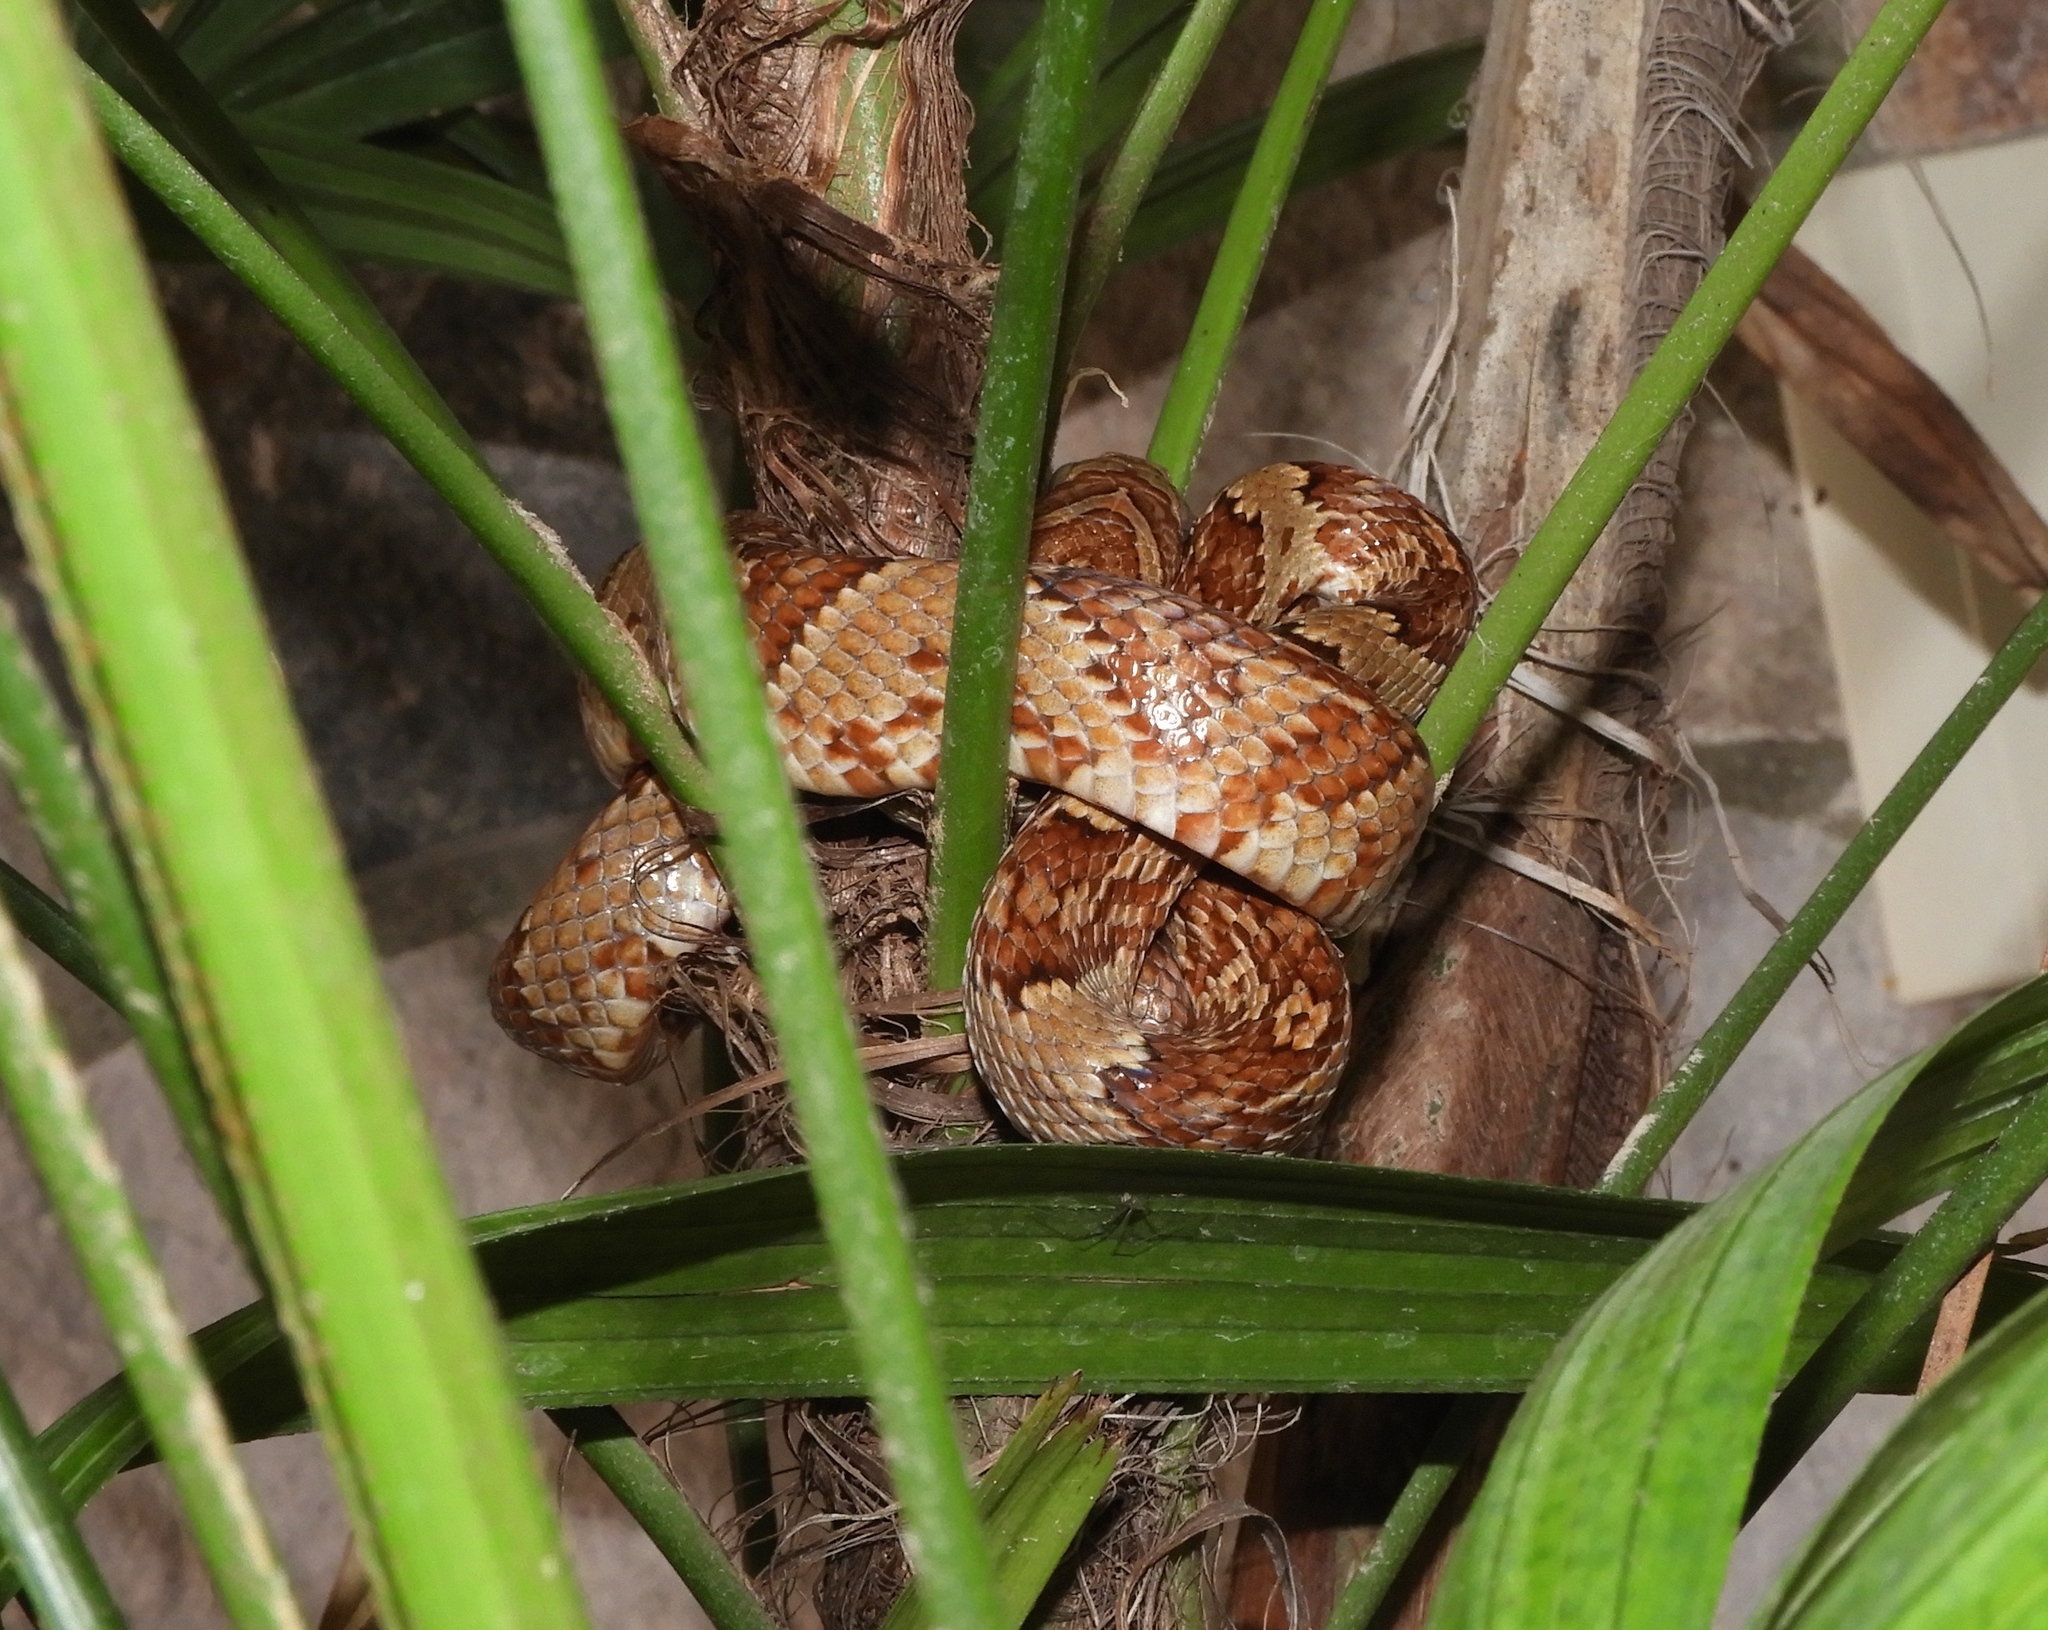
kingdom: Animalia
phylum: Chordata
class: Squamata
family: Colubridae
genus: Trimorphodon
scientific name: Trimorphodon paucimaculatus
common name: Sinaloan lyresnake
